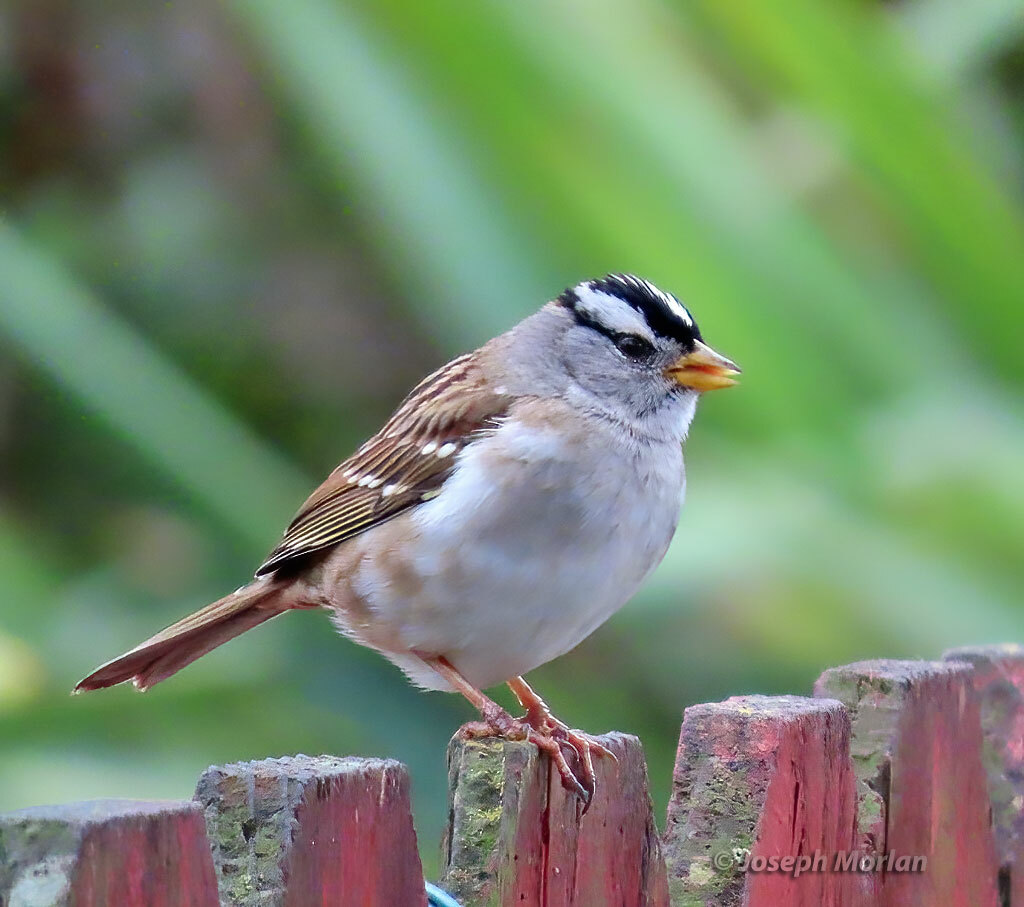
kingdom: Animalia
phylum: Chordata
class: Aves
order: Passeriformes
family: Passerellidae
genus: Zonotrichia
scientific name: Zonotrichia leucophrys
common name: White-crowned sparrow
